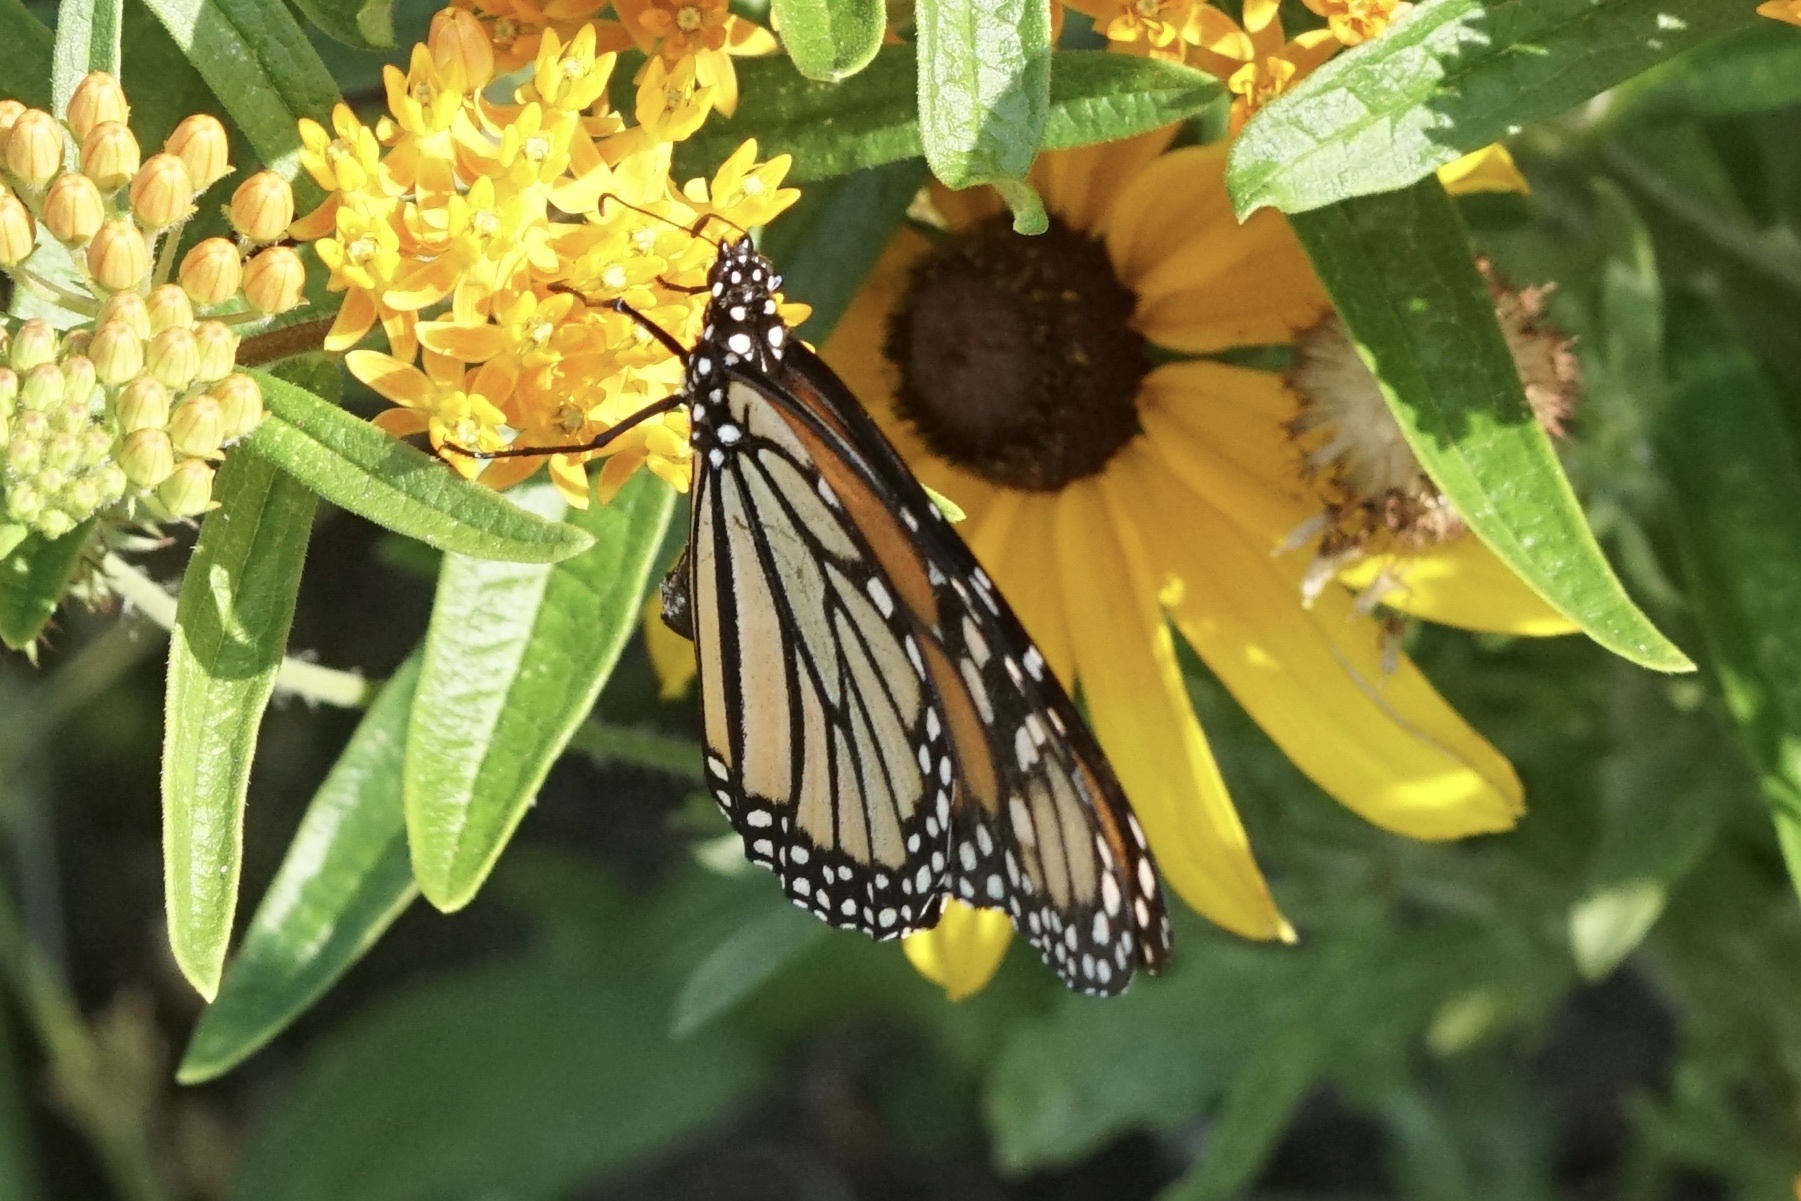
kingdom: Animalia
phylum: Arthropoda
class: Insecta
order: Lepidoptera
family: Nymphalidae
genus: Danaus
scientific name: Danaus plexippus
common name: Monarch
